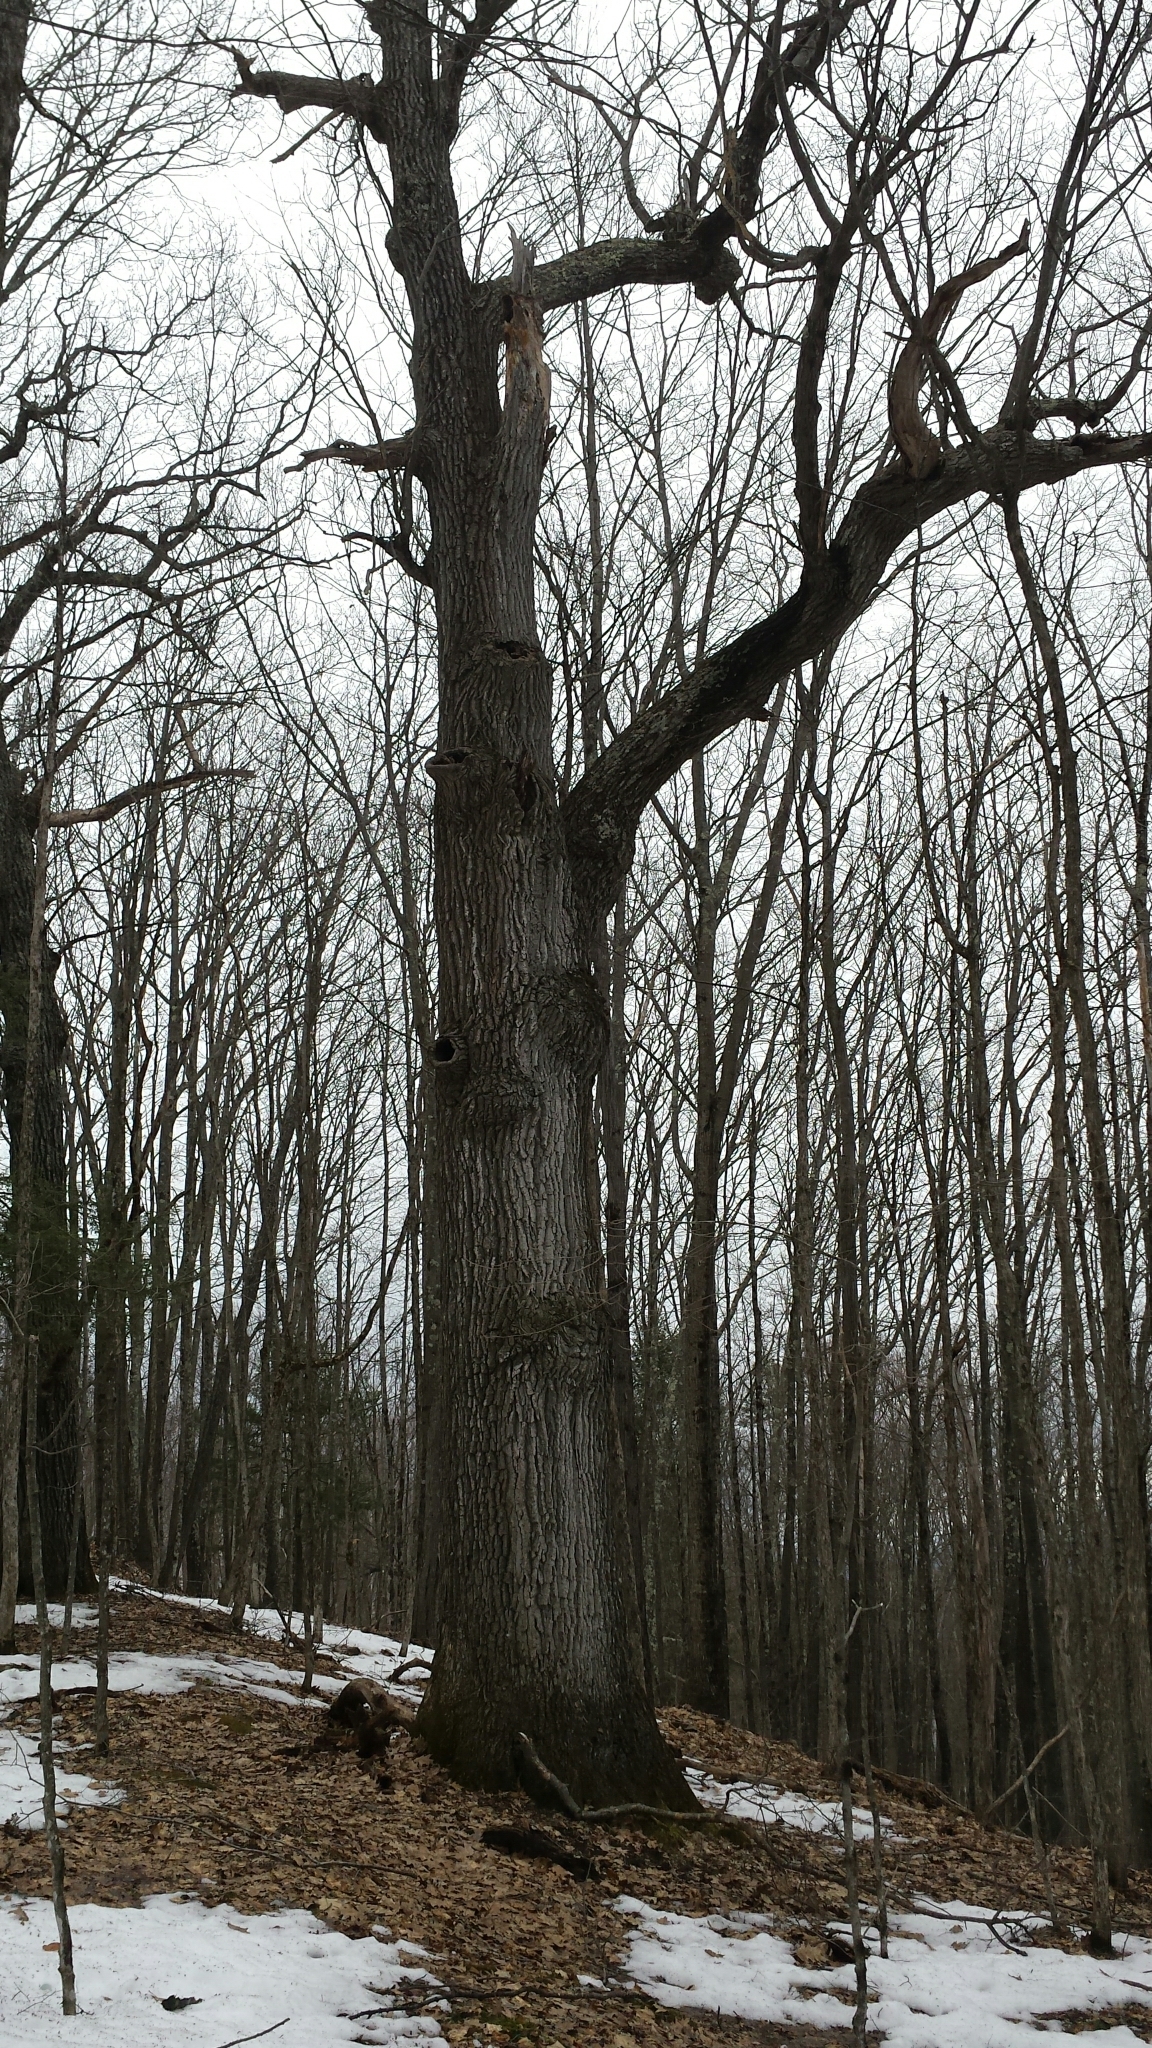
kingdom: Plantae
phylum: Tracheophyta
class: Magnoliopsida
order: Fagales
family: Fagaceae
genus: Quercus
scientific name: Quercus rubra
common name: Red oak
